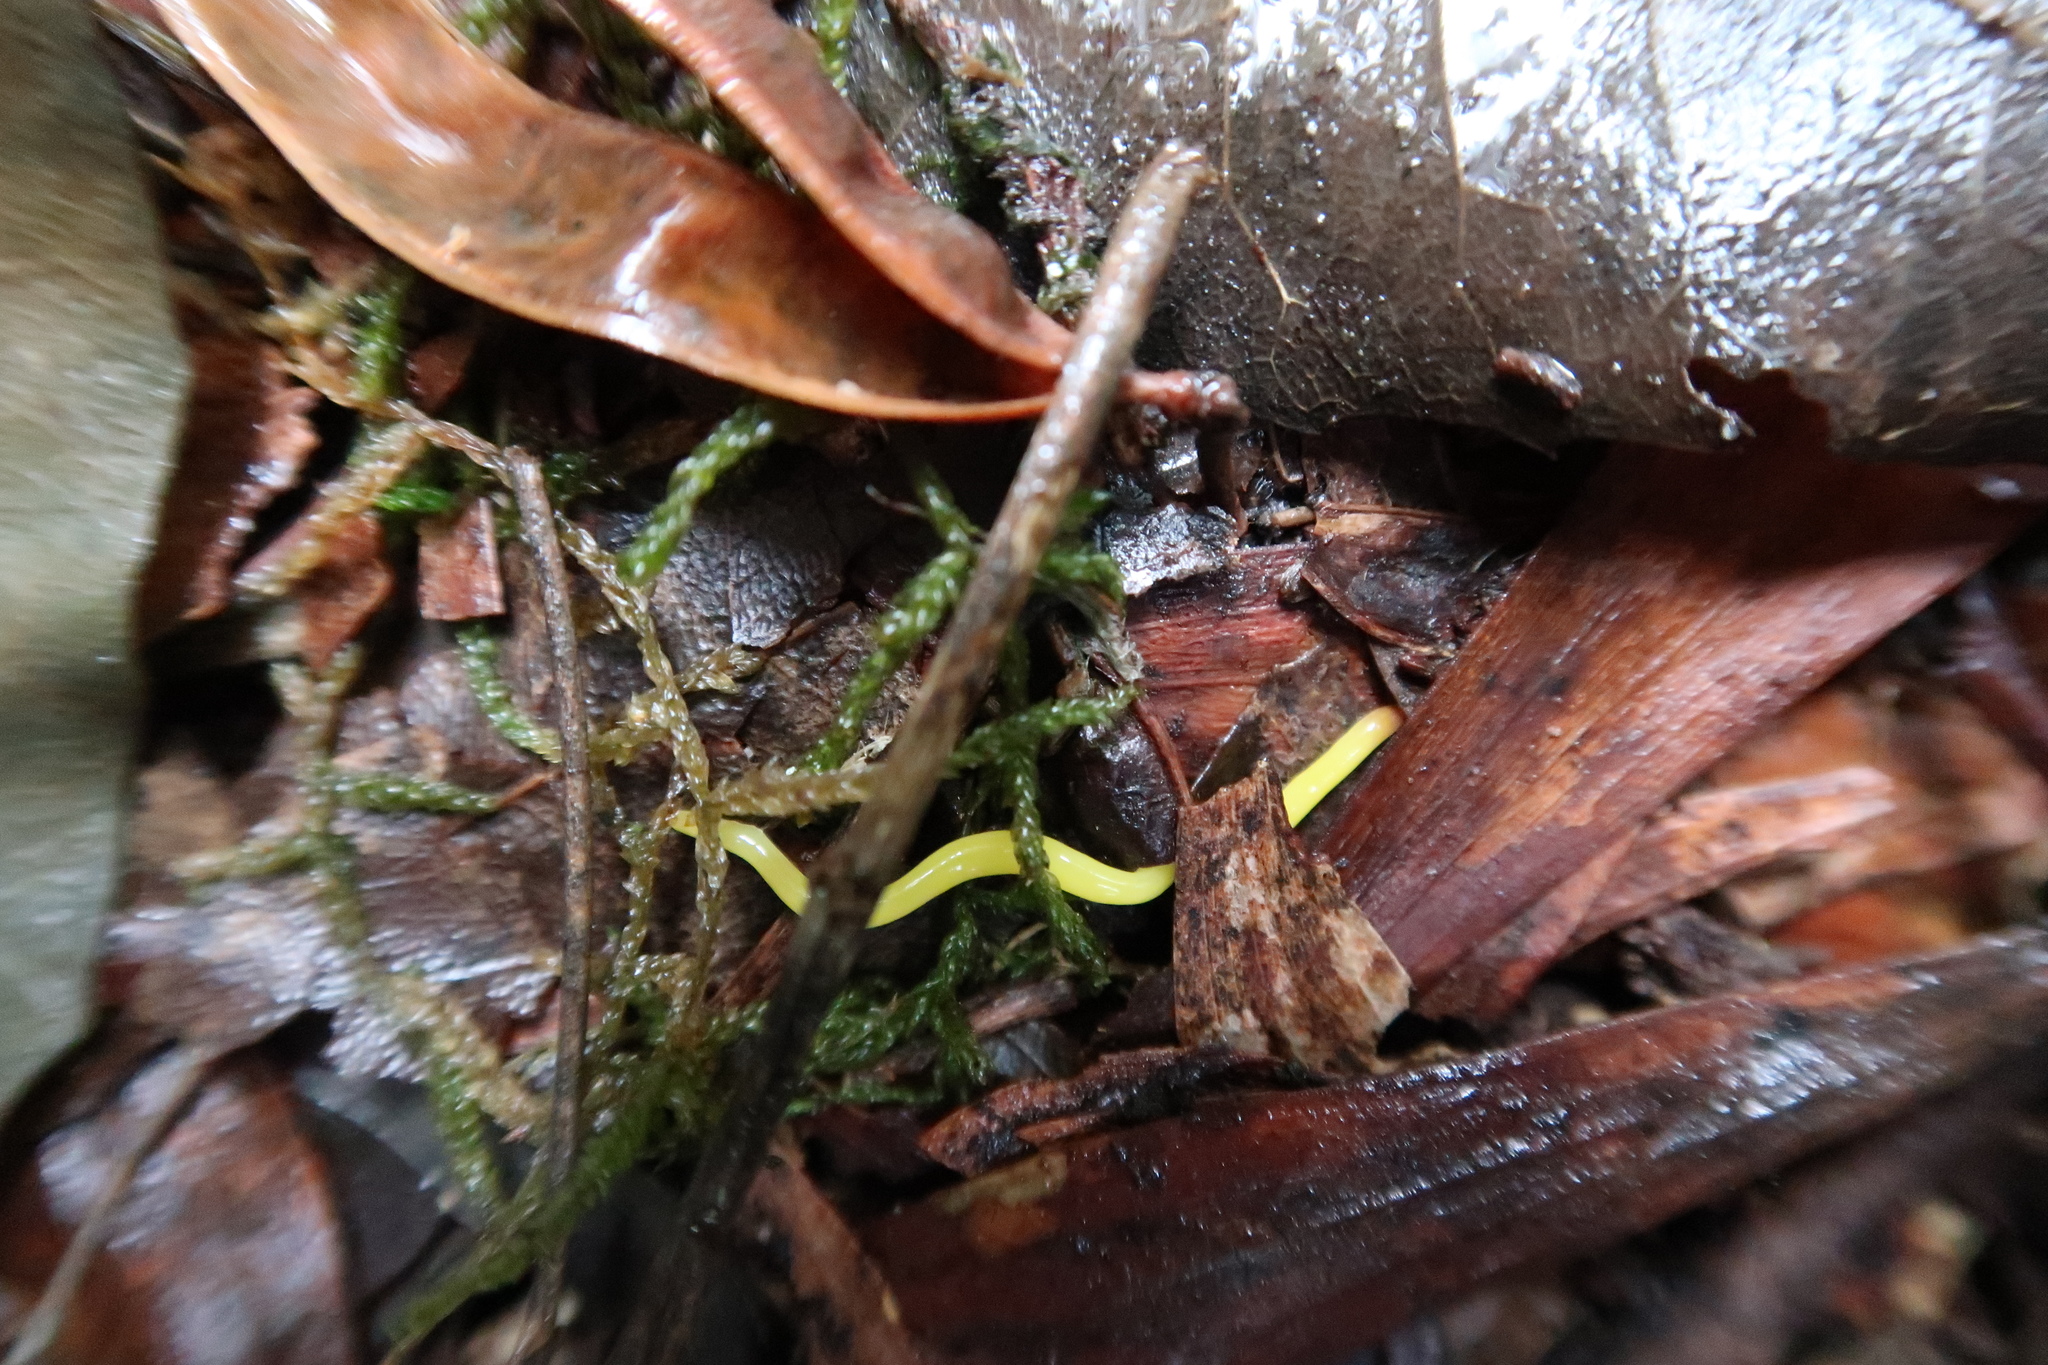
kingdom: Animalia
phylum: Platyhelminthes
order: Tricladida
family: Geoplanidae
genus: Fletchamia
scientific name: Fletchamia sugdeni
